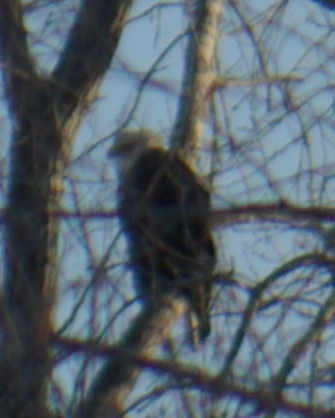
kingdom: Animalia
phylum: Chordata
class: Aves
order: Accipitriformes
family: Accipitridae
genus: Haliaeetus
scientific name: Haliaeetus leucocephalus
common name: Bald eagle
